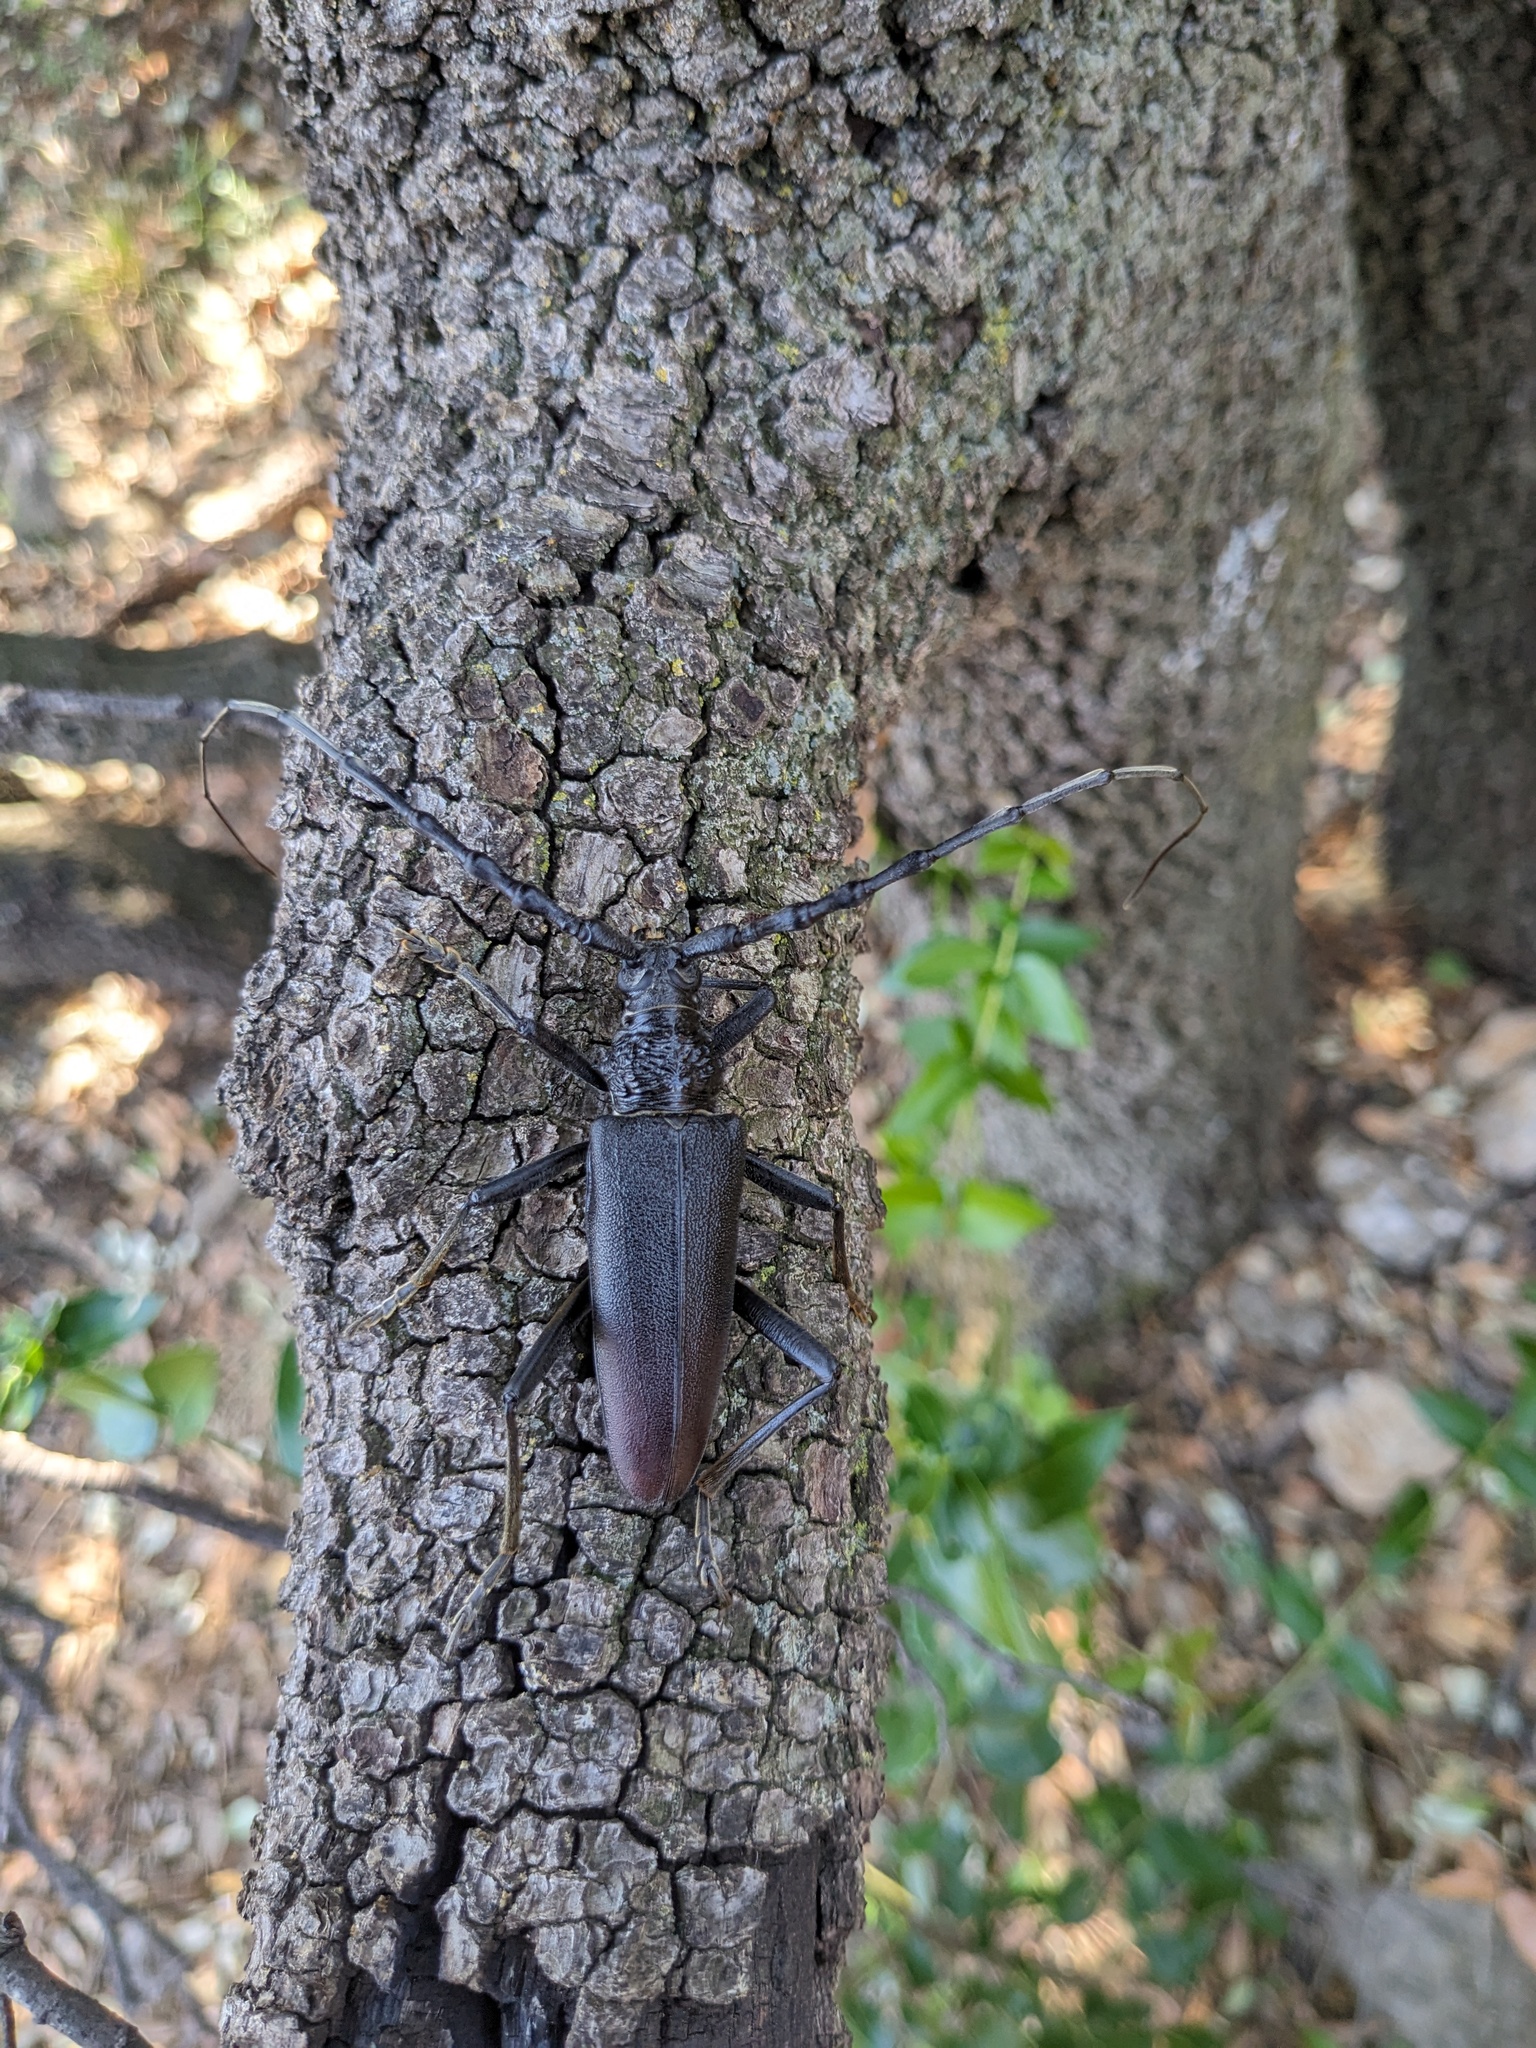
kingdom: Animalia
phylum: Arthropoda
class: Insecta
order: Coleoptera
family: Cerambycidae
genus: Cerambyx
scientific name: Cerambyx cerdo
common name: Cerambyx longicorn
